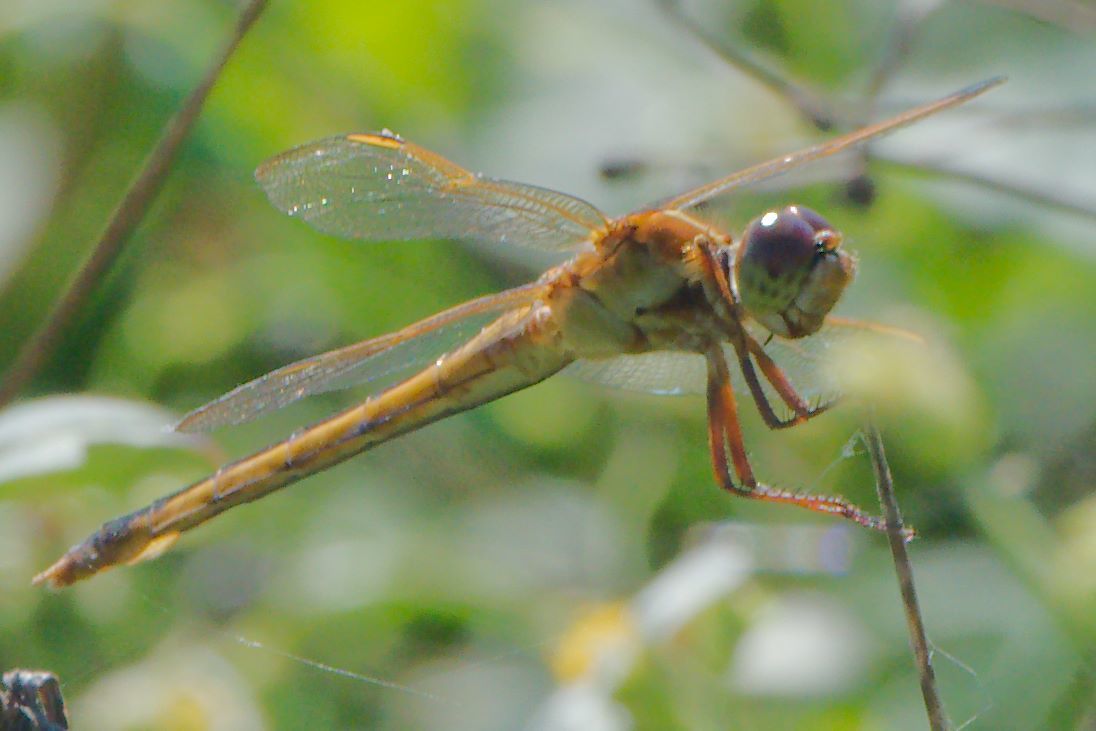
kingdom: Animalia
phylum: Arthropoda
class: Insecta
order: Odonata
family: Libellulidae
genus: Libellula
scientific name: Libellula needhami
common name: Needham's skimmer
